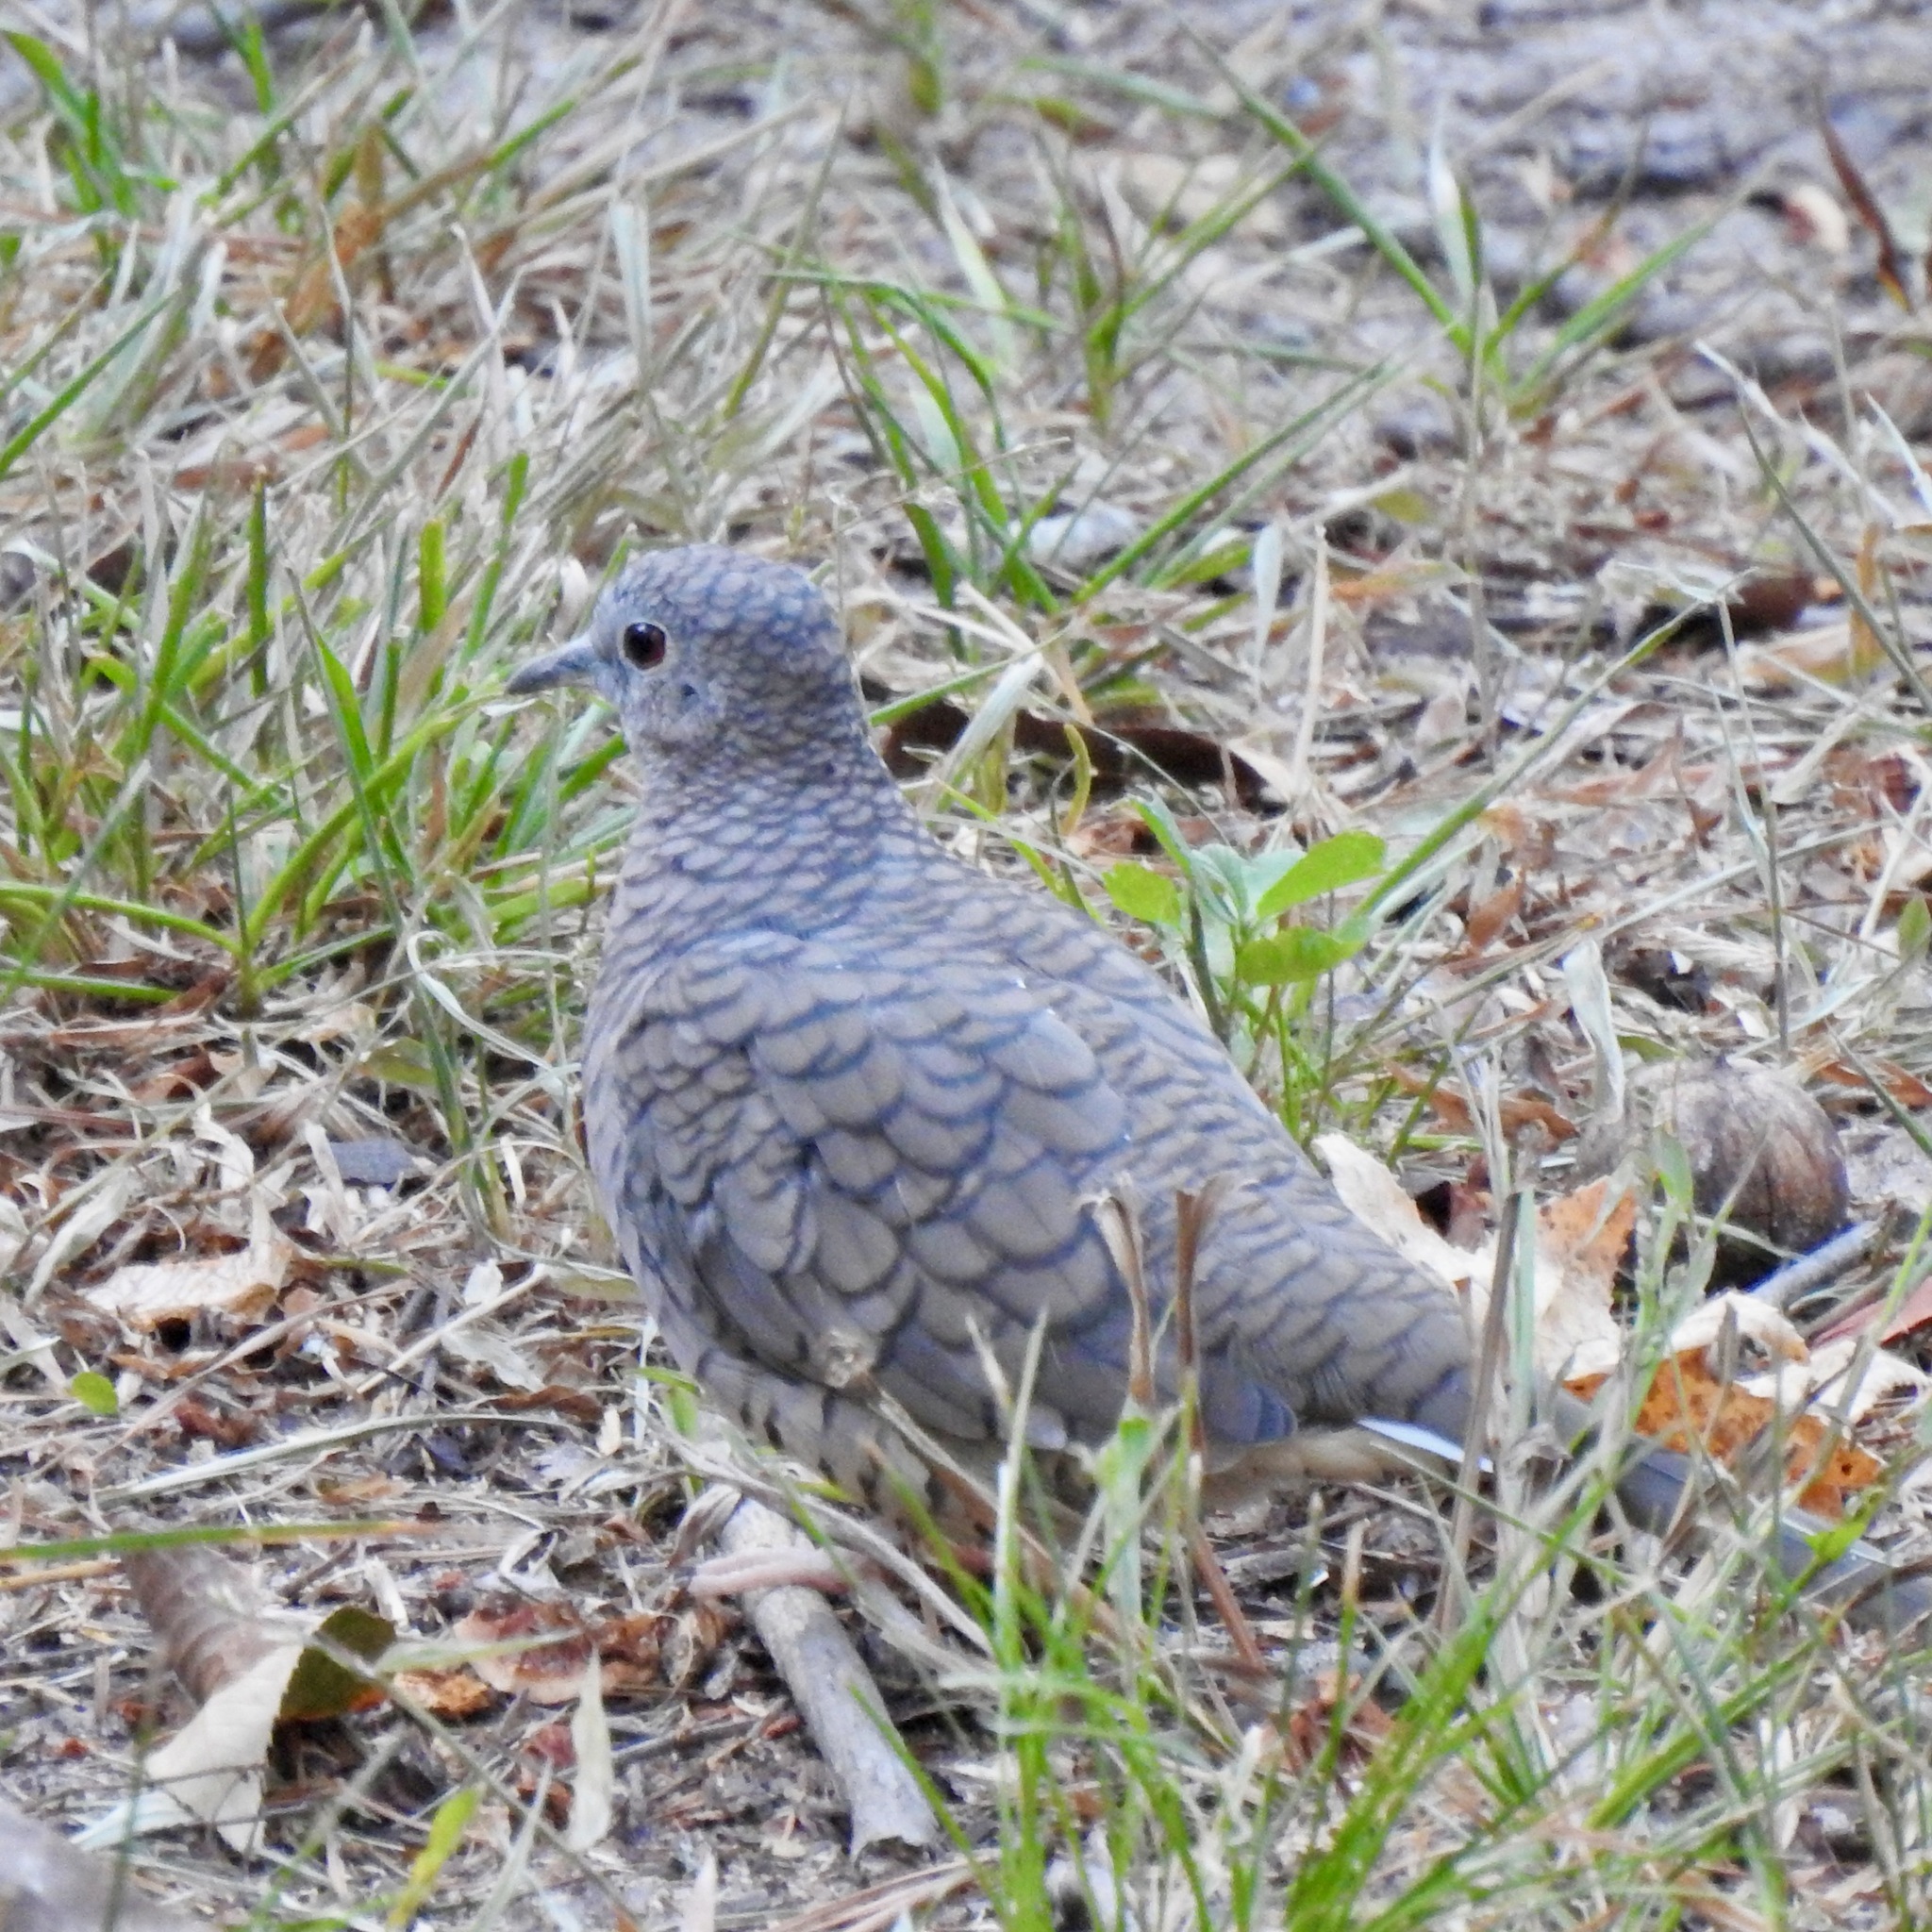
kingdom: Animalia
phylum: Chordata
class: Aves
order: Columbiformes
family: Columbidae
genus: Columbina
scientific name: Columbina inca
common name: Inca dove
